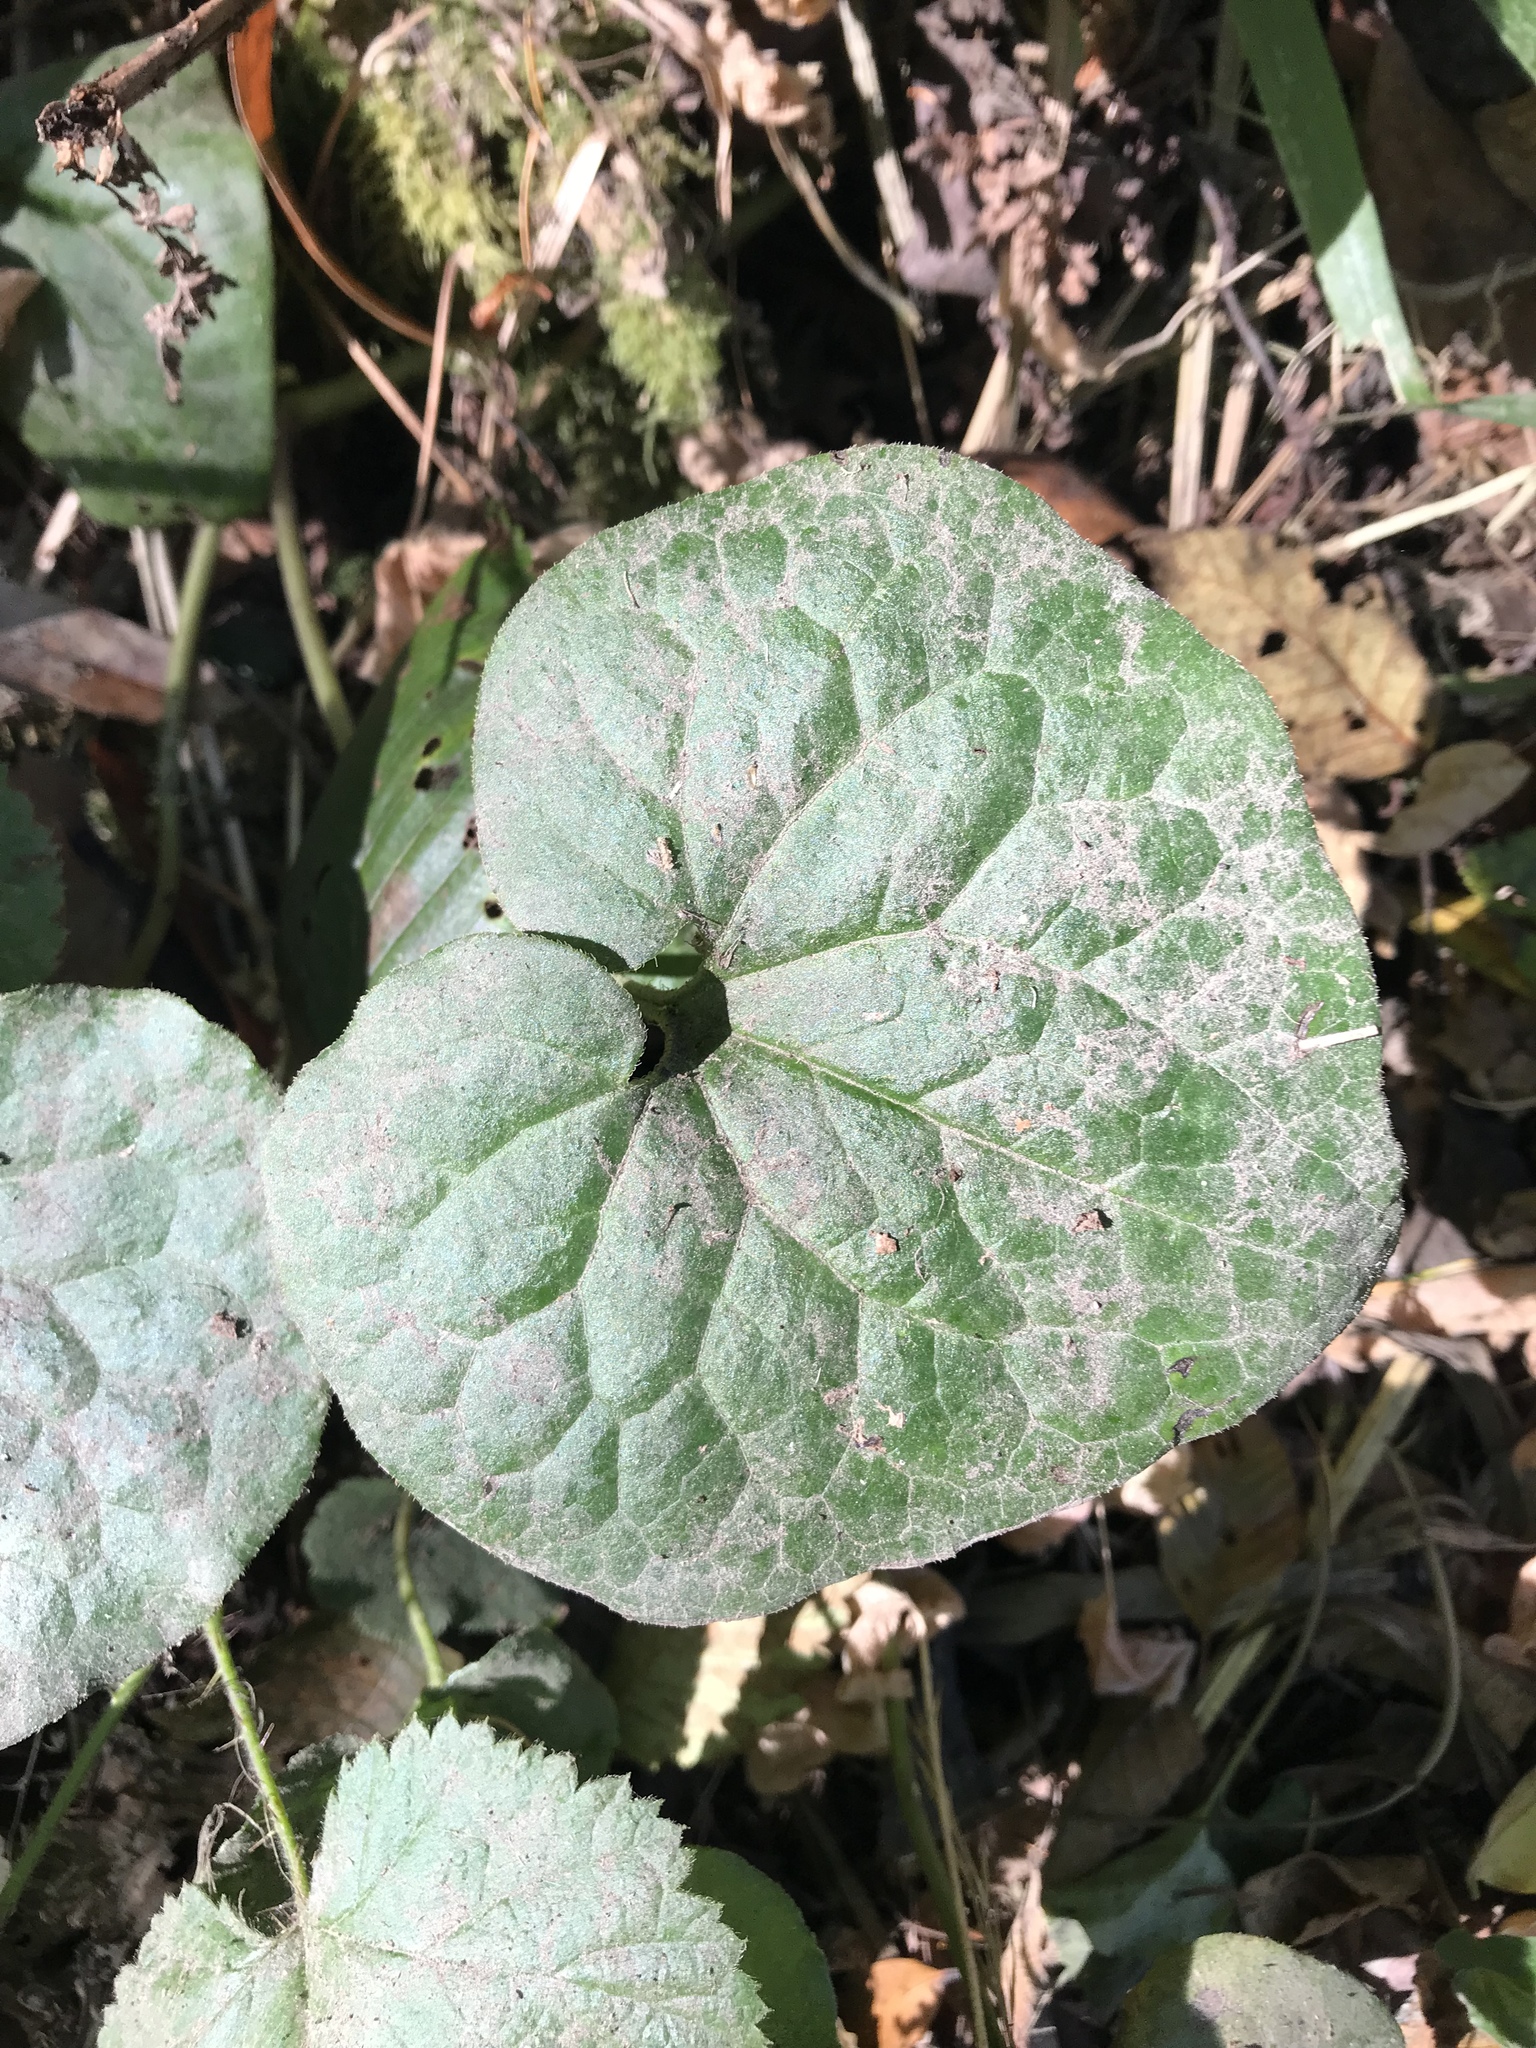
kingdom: Plantae
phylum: Tracheophyta
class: Magnoliopsida
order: Piperales
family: Aristolochiaceae
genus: Asarum
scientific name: Asarum caudatum
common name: Wild ginger
